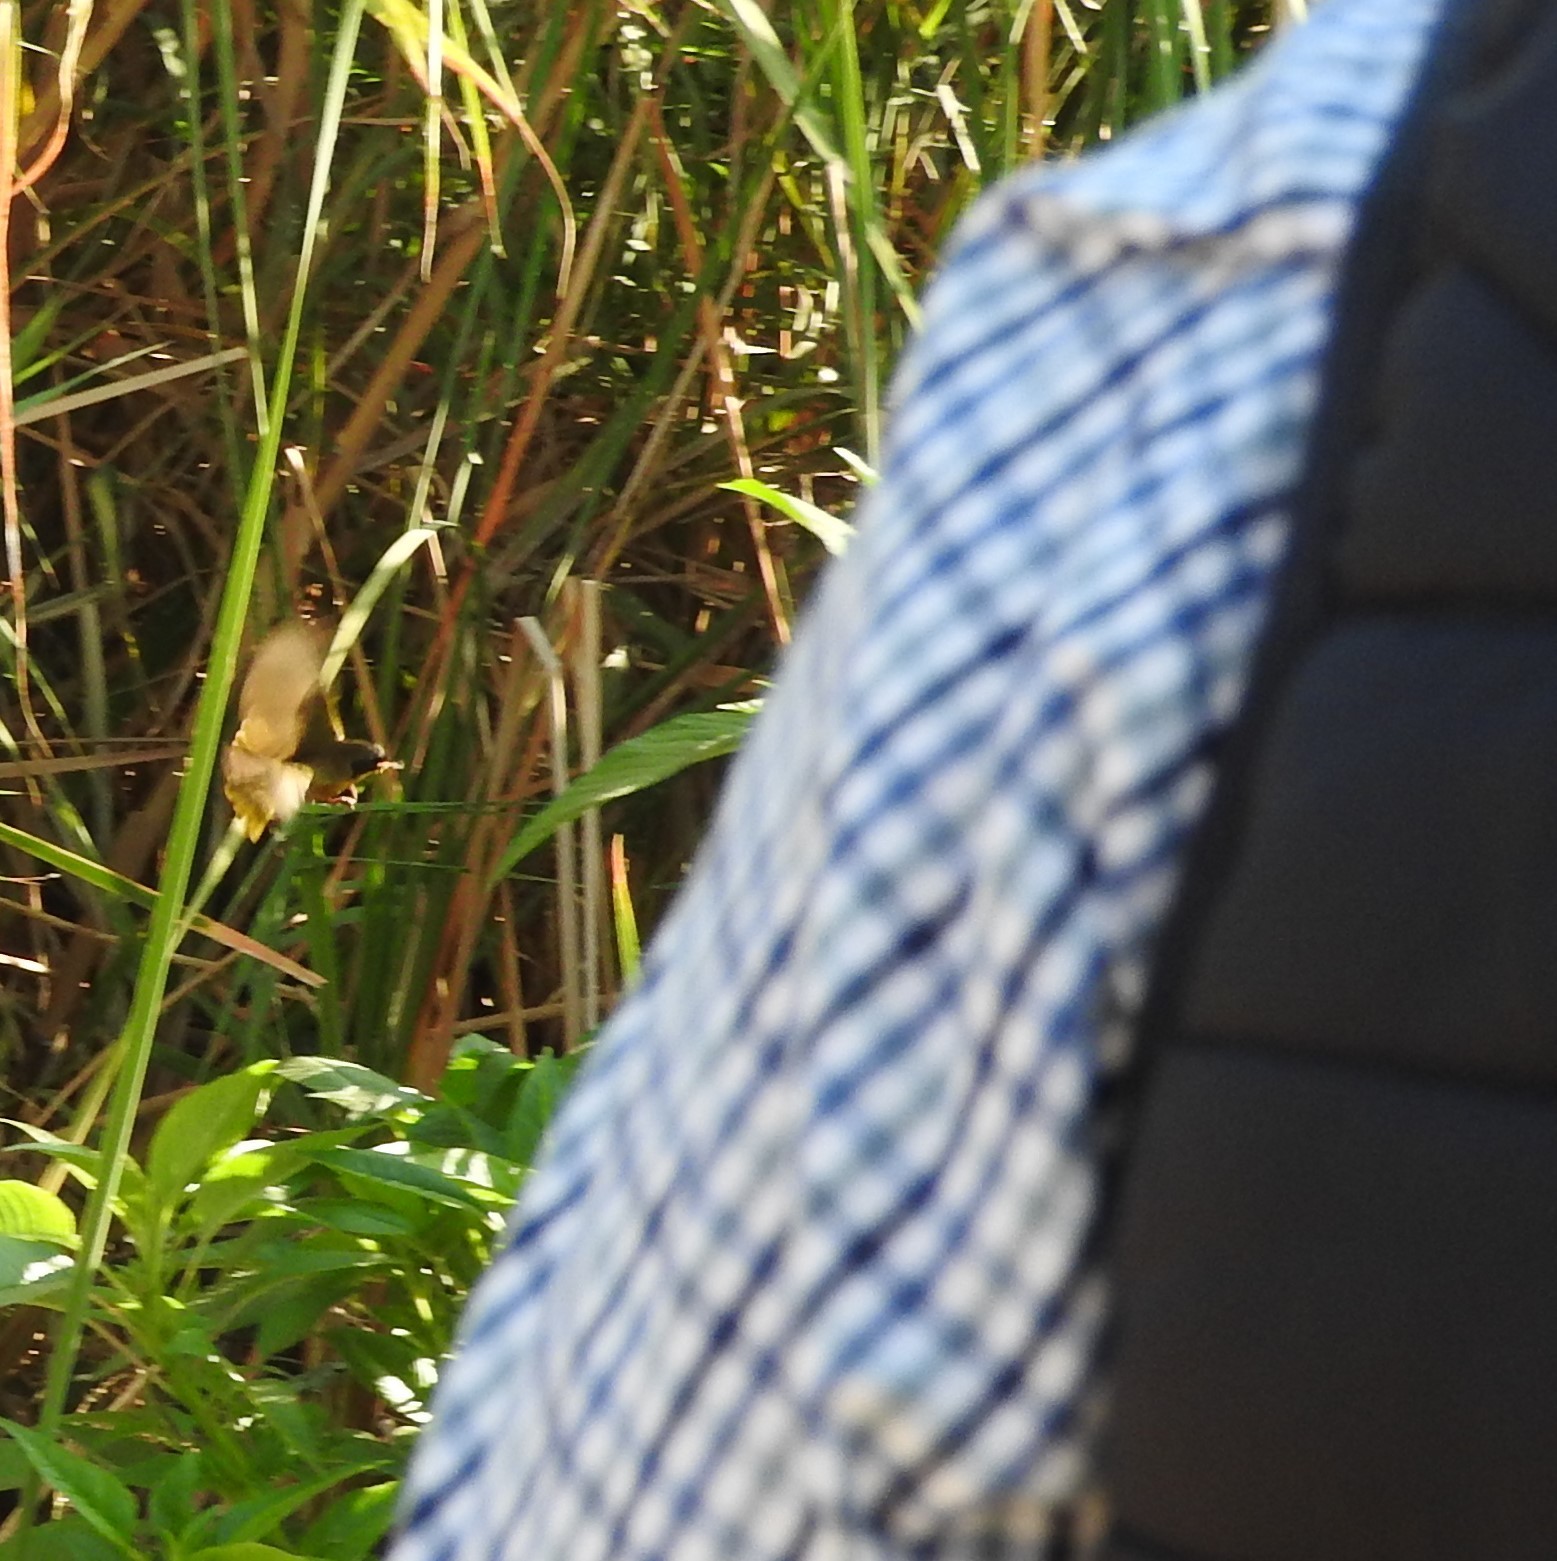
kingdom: Animalia
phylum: Chordata
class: Aves
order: Passeriformes
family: Parulidae
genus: Geothlypis
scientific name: Geothlypis speciosa
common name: Black-polled yellowthroat
